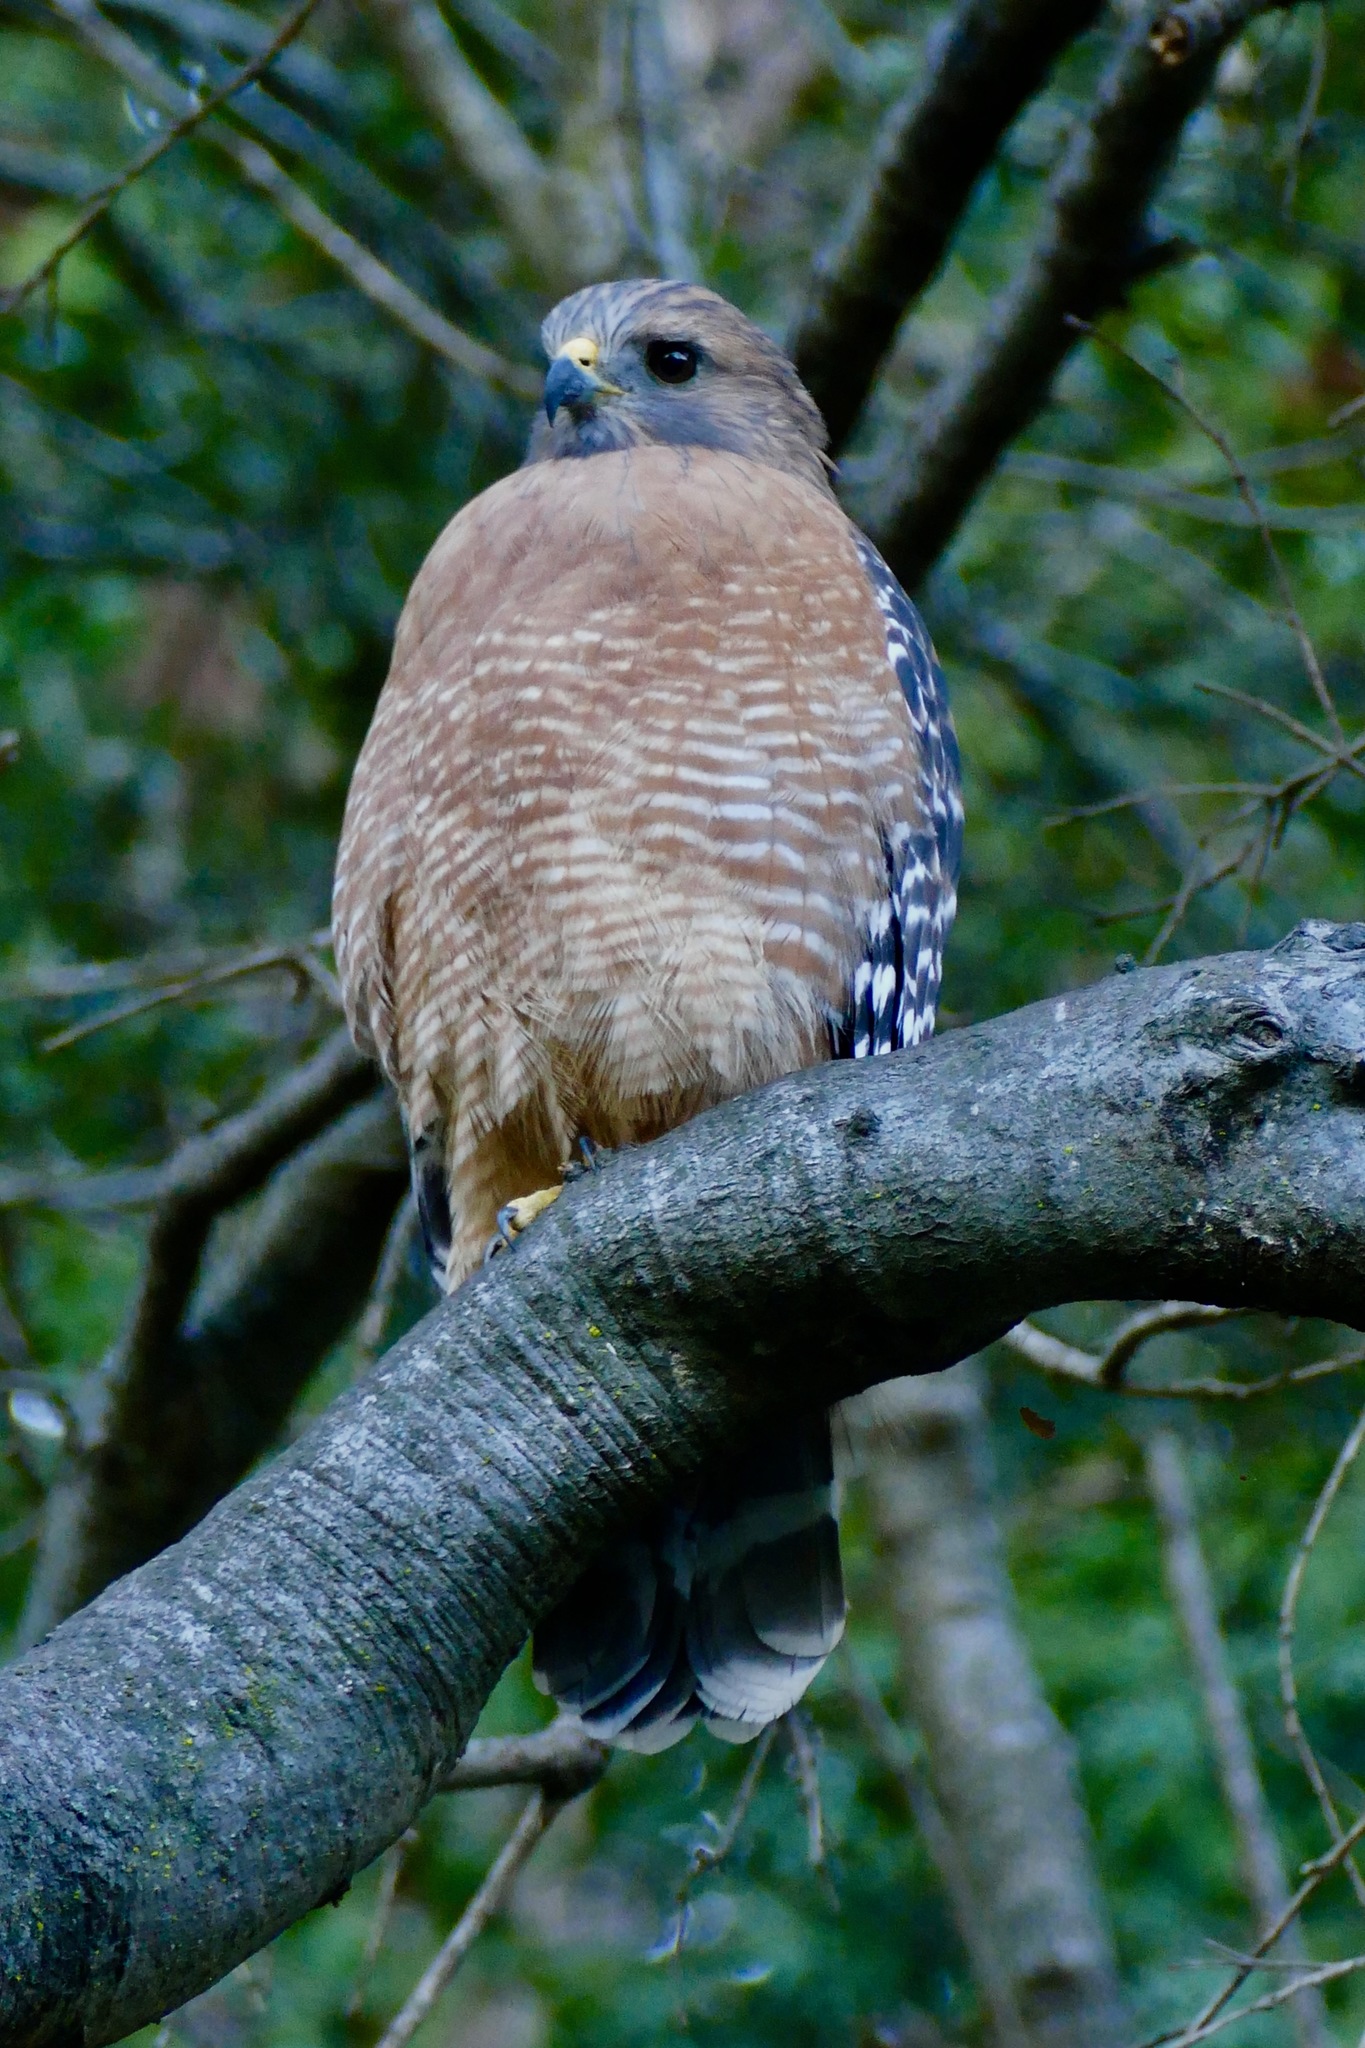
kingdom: Animalia
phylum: Chordata
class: Aves
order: Accipitriformes
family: Accipitridae
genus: Buteo
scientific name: Buteo lineatus
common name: Red-shouldered hawk
